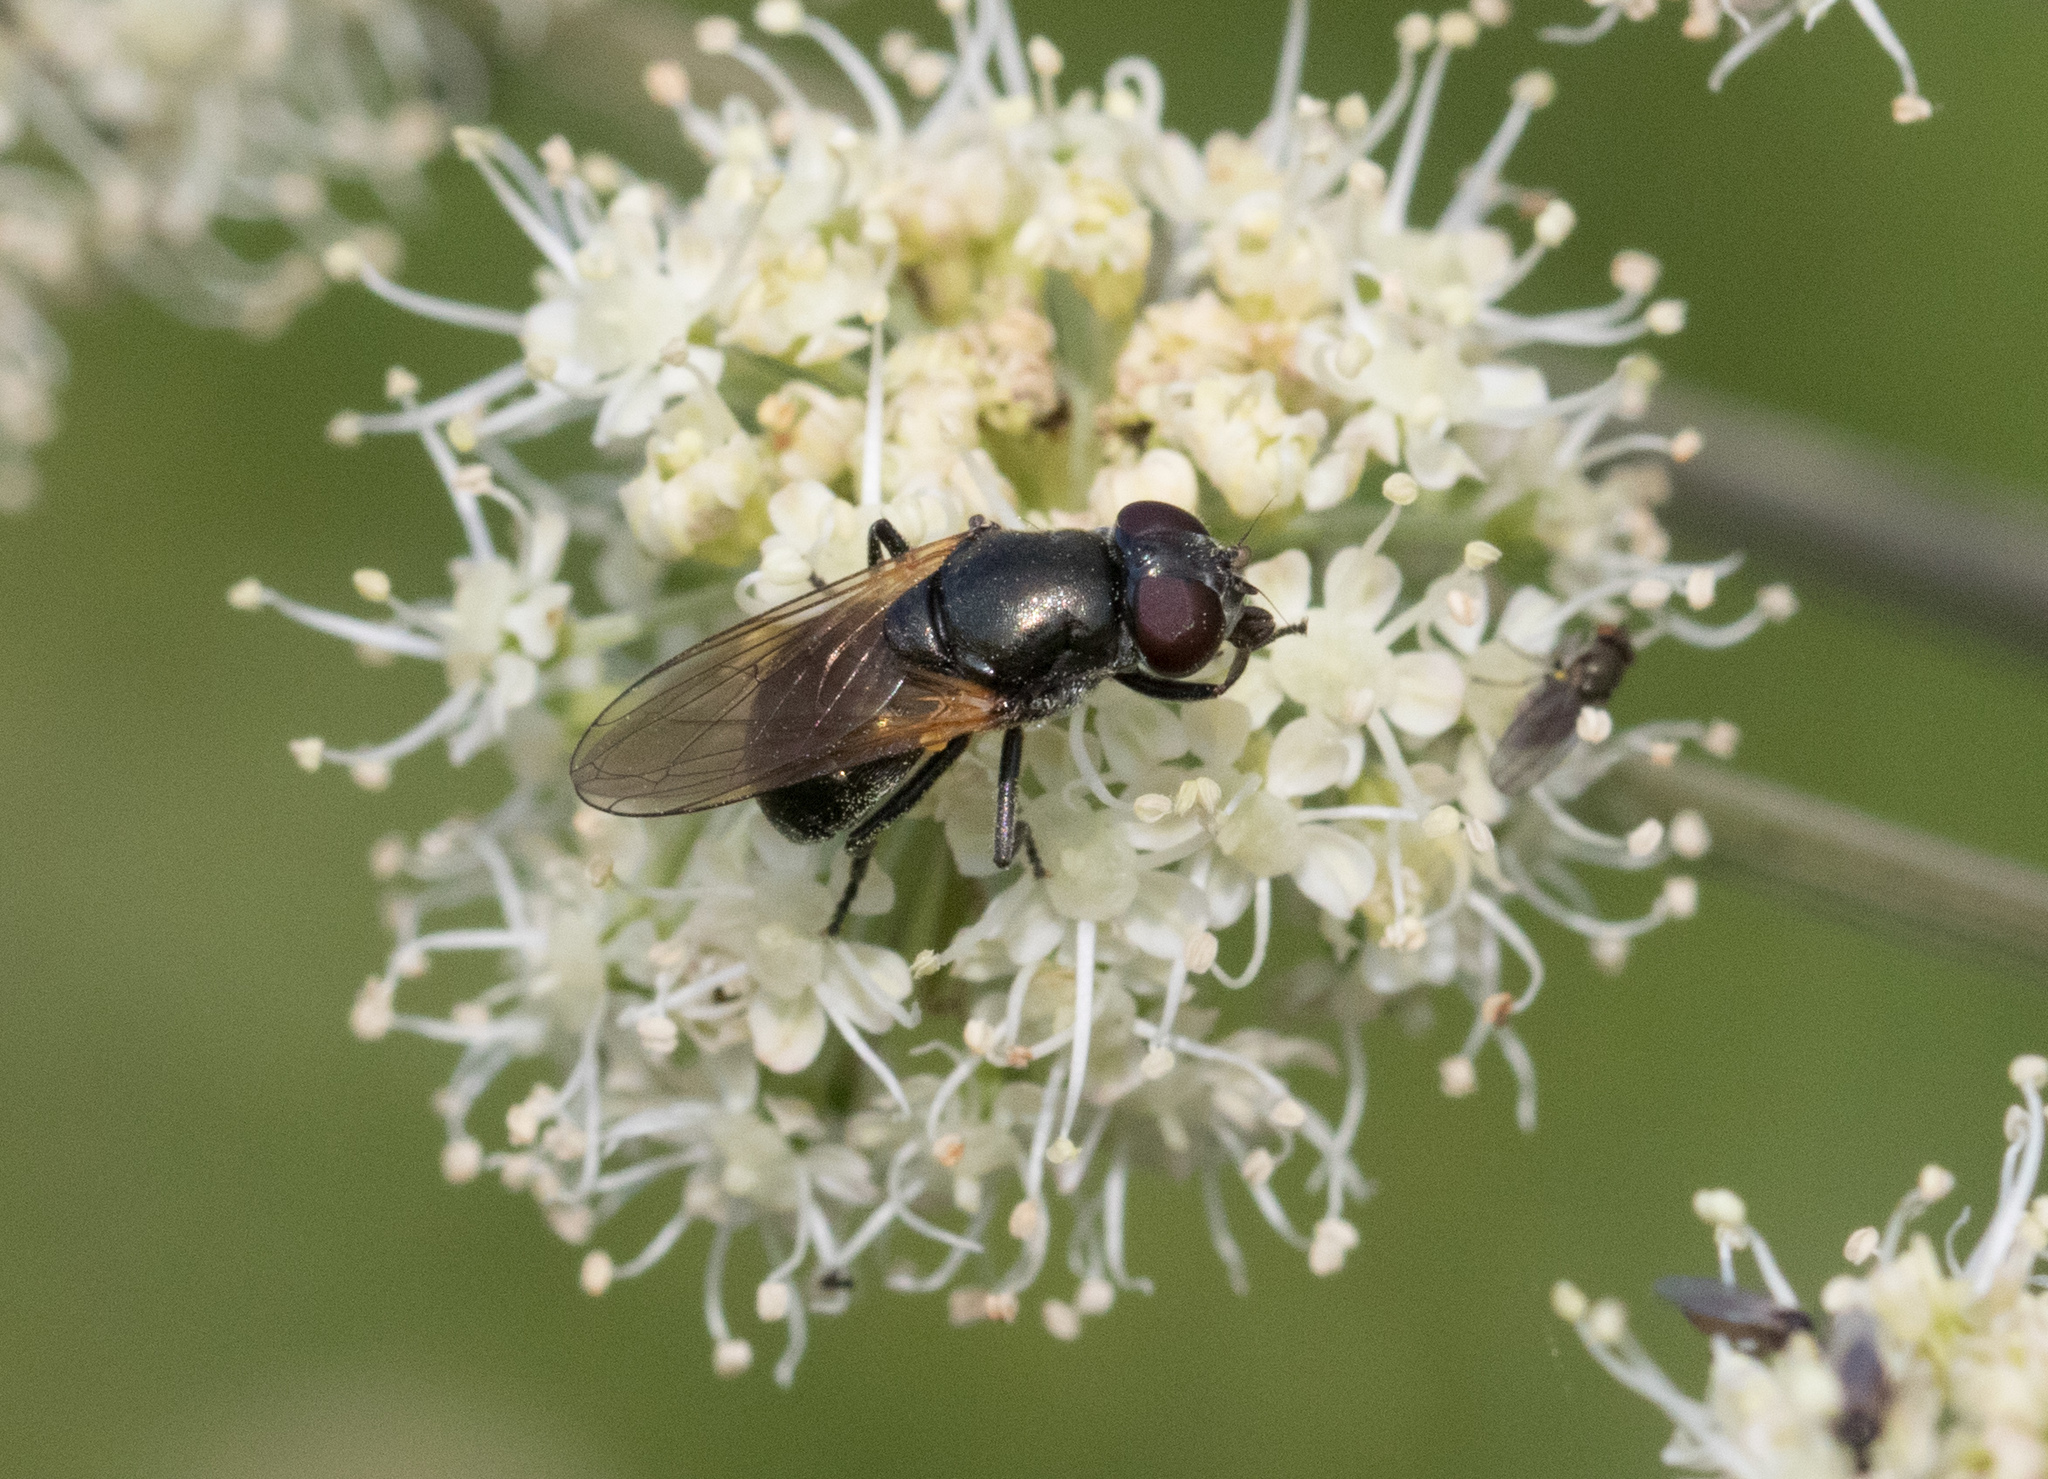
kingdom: Animalia
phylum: Arthropoda
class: Insecta
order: Diptera
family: Syrphidae
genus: Cheilosia
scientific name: Cheilosia impressa
